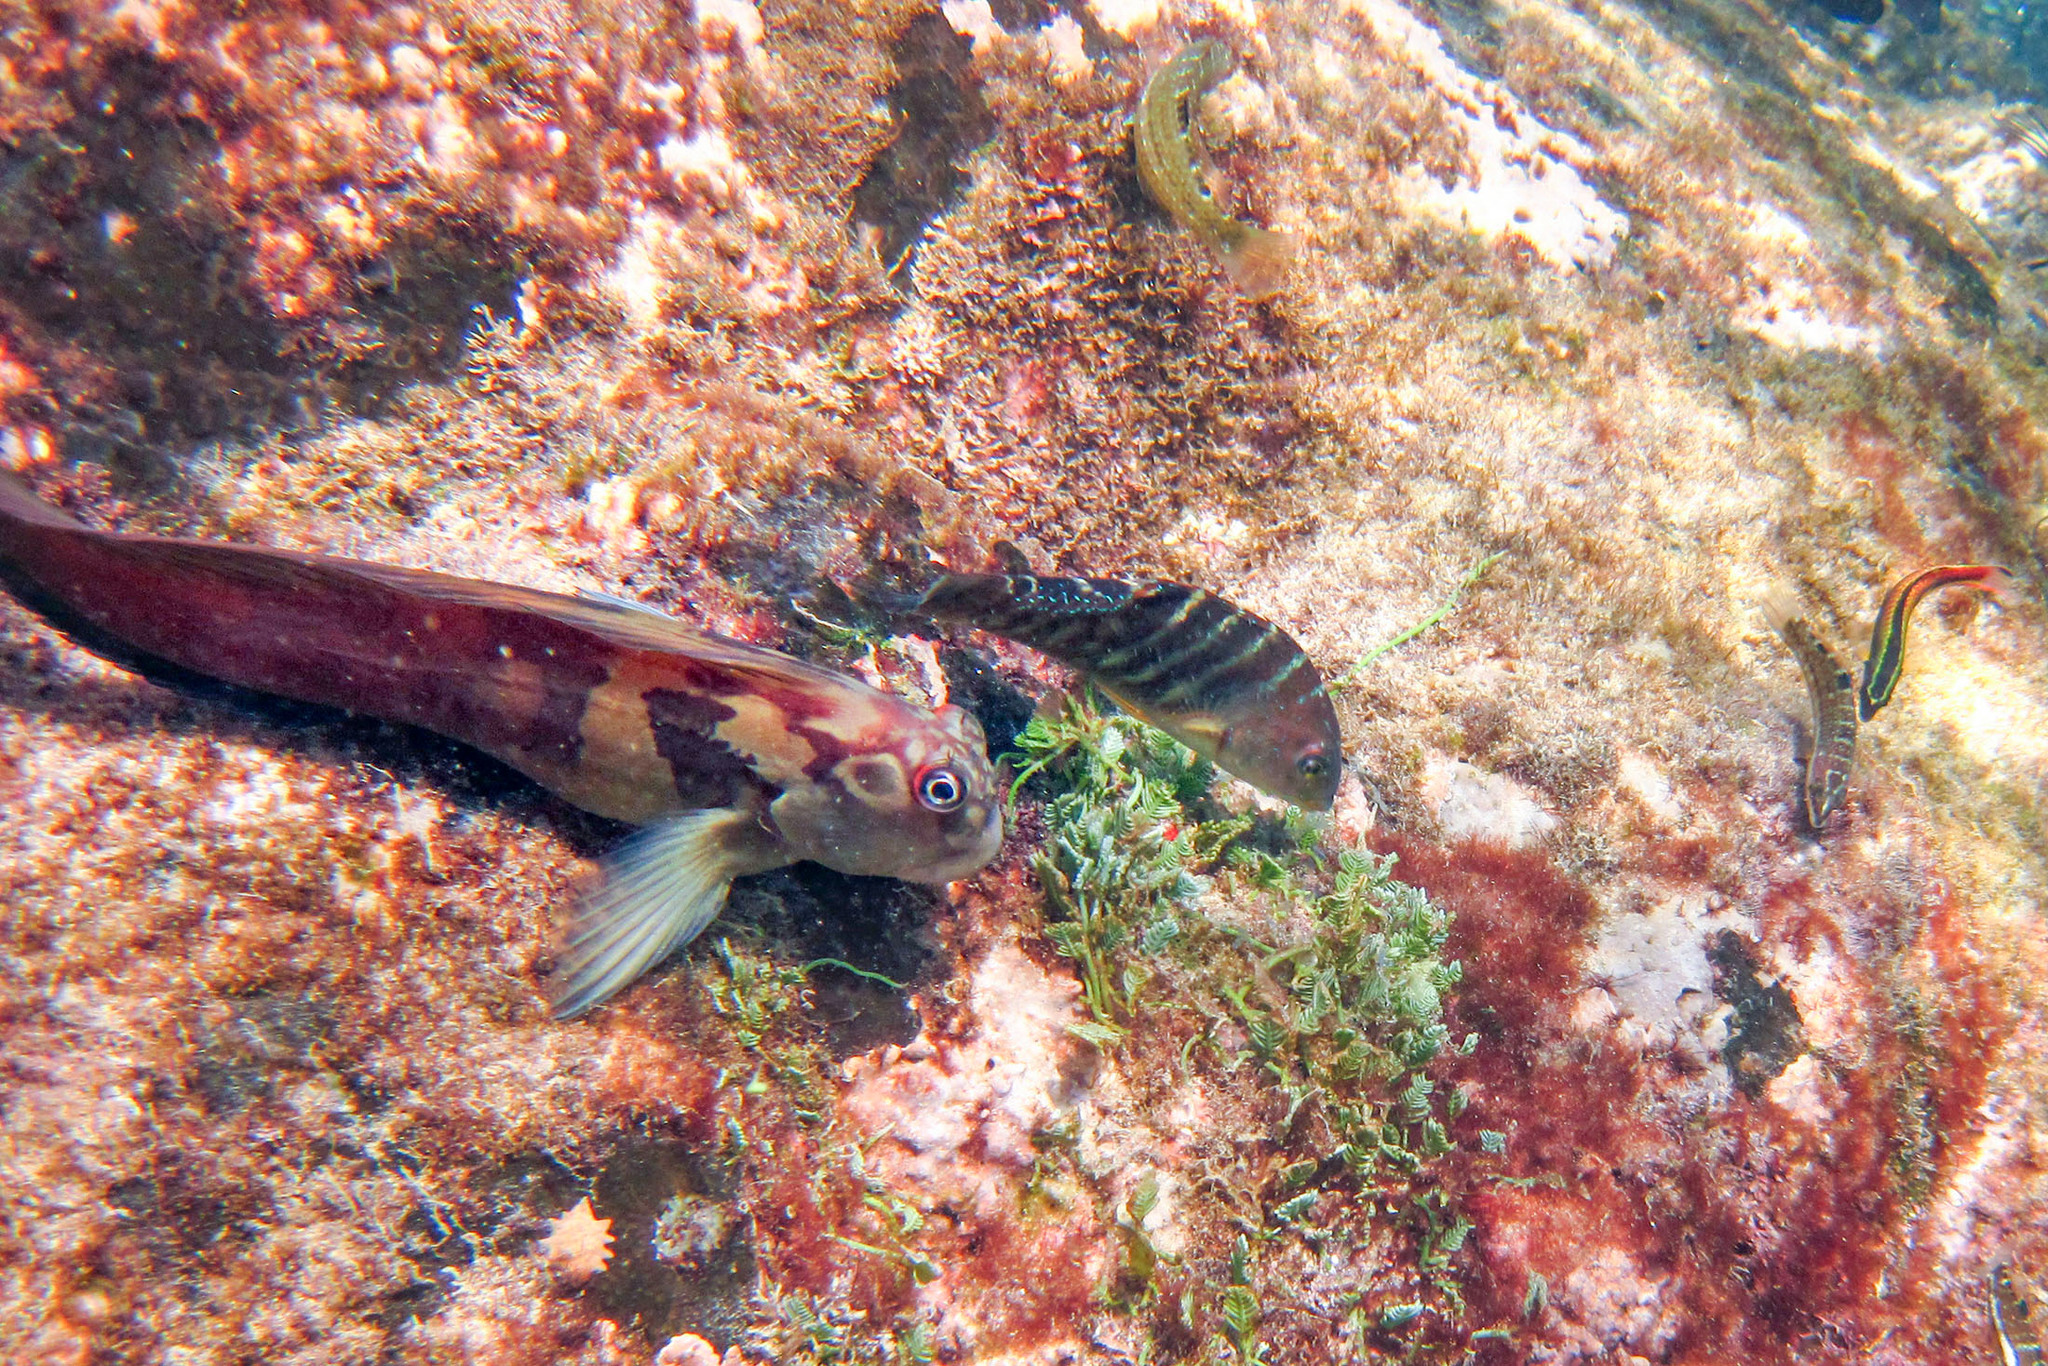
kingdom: Animalia
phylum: Chordata
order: Perciformes
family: Blenniidae
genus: Ophioblennius
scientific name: Ophioblennius steindachneri
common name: Panamic fanged blenny
